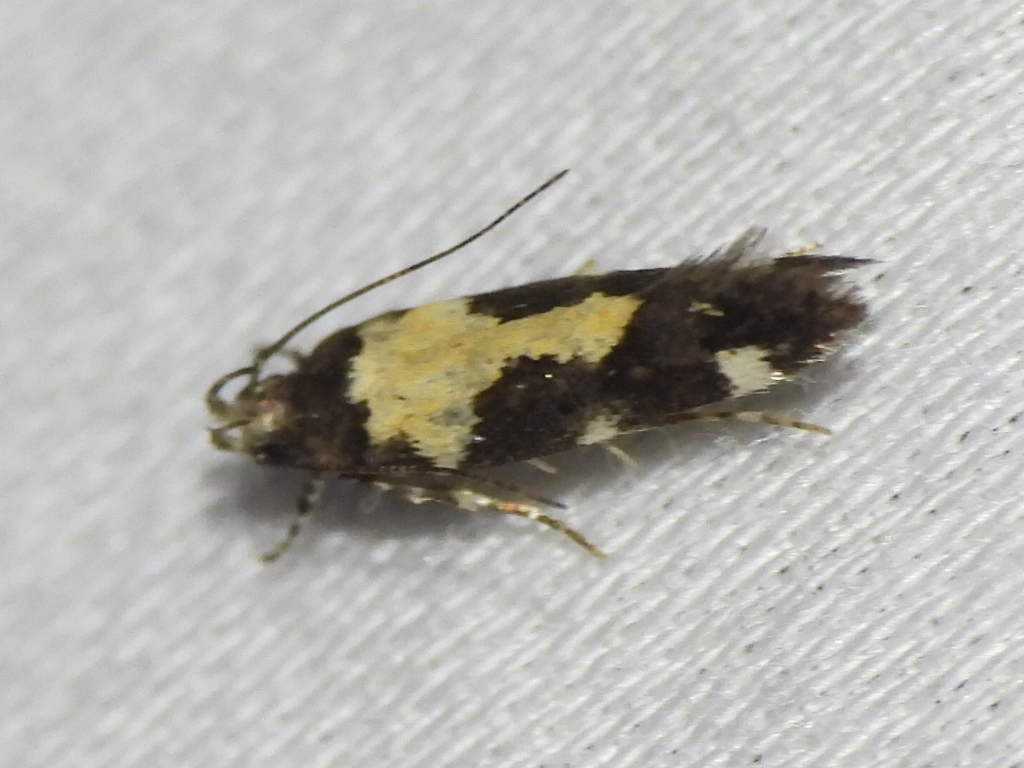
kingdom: Animalia
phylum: Arthropoda
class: Insecta
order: Lepidoptera
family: Gelechiidae
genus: Stegasta
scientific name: Stegasta bosqueella
